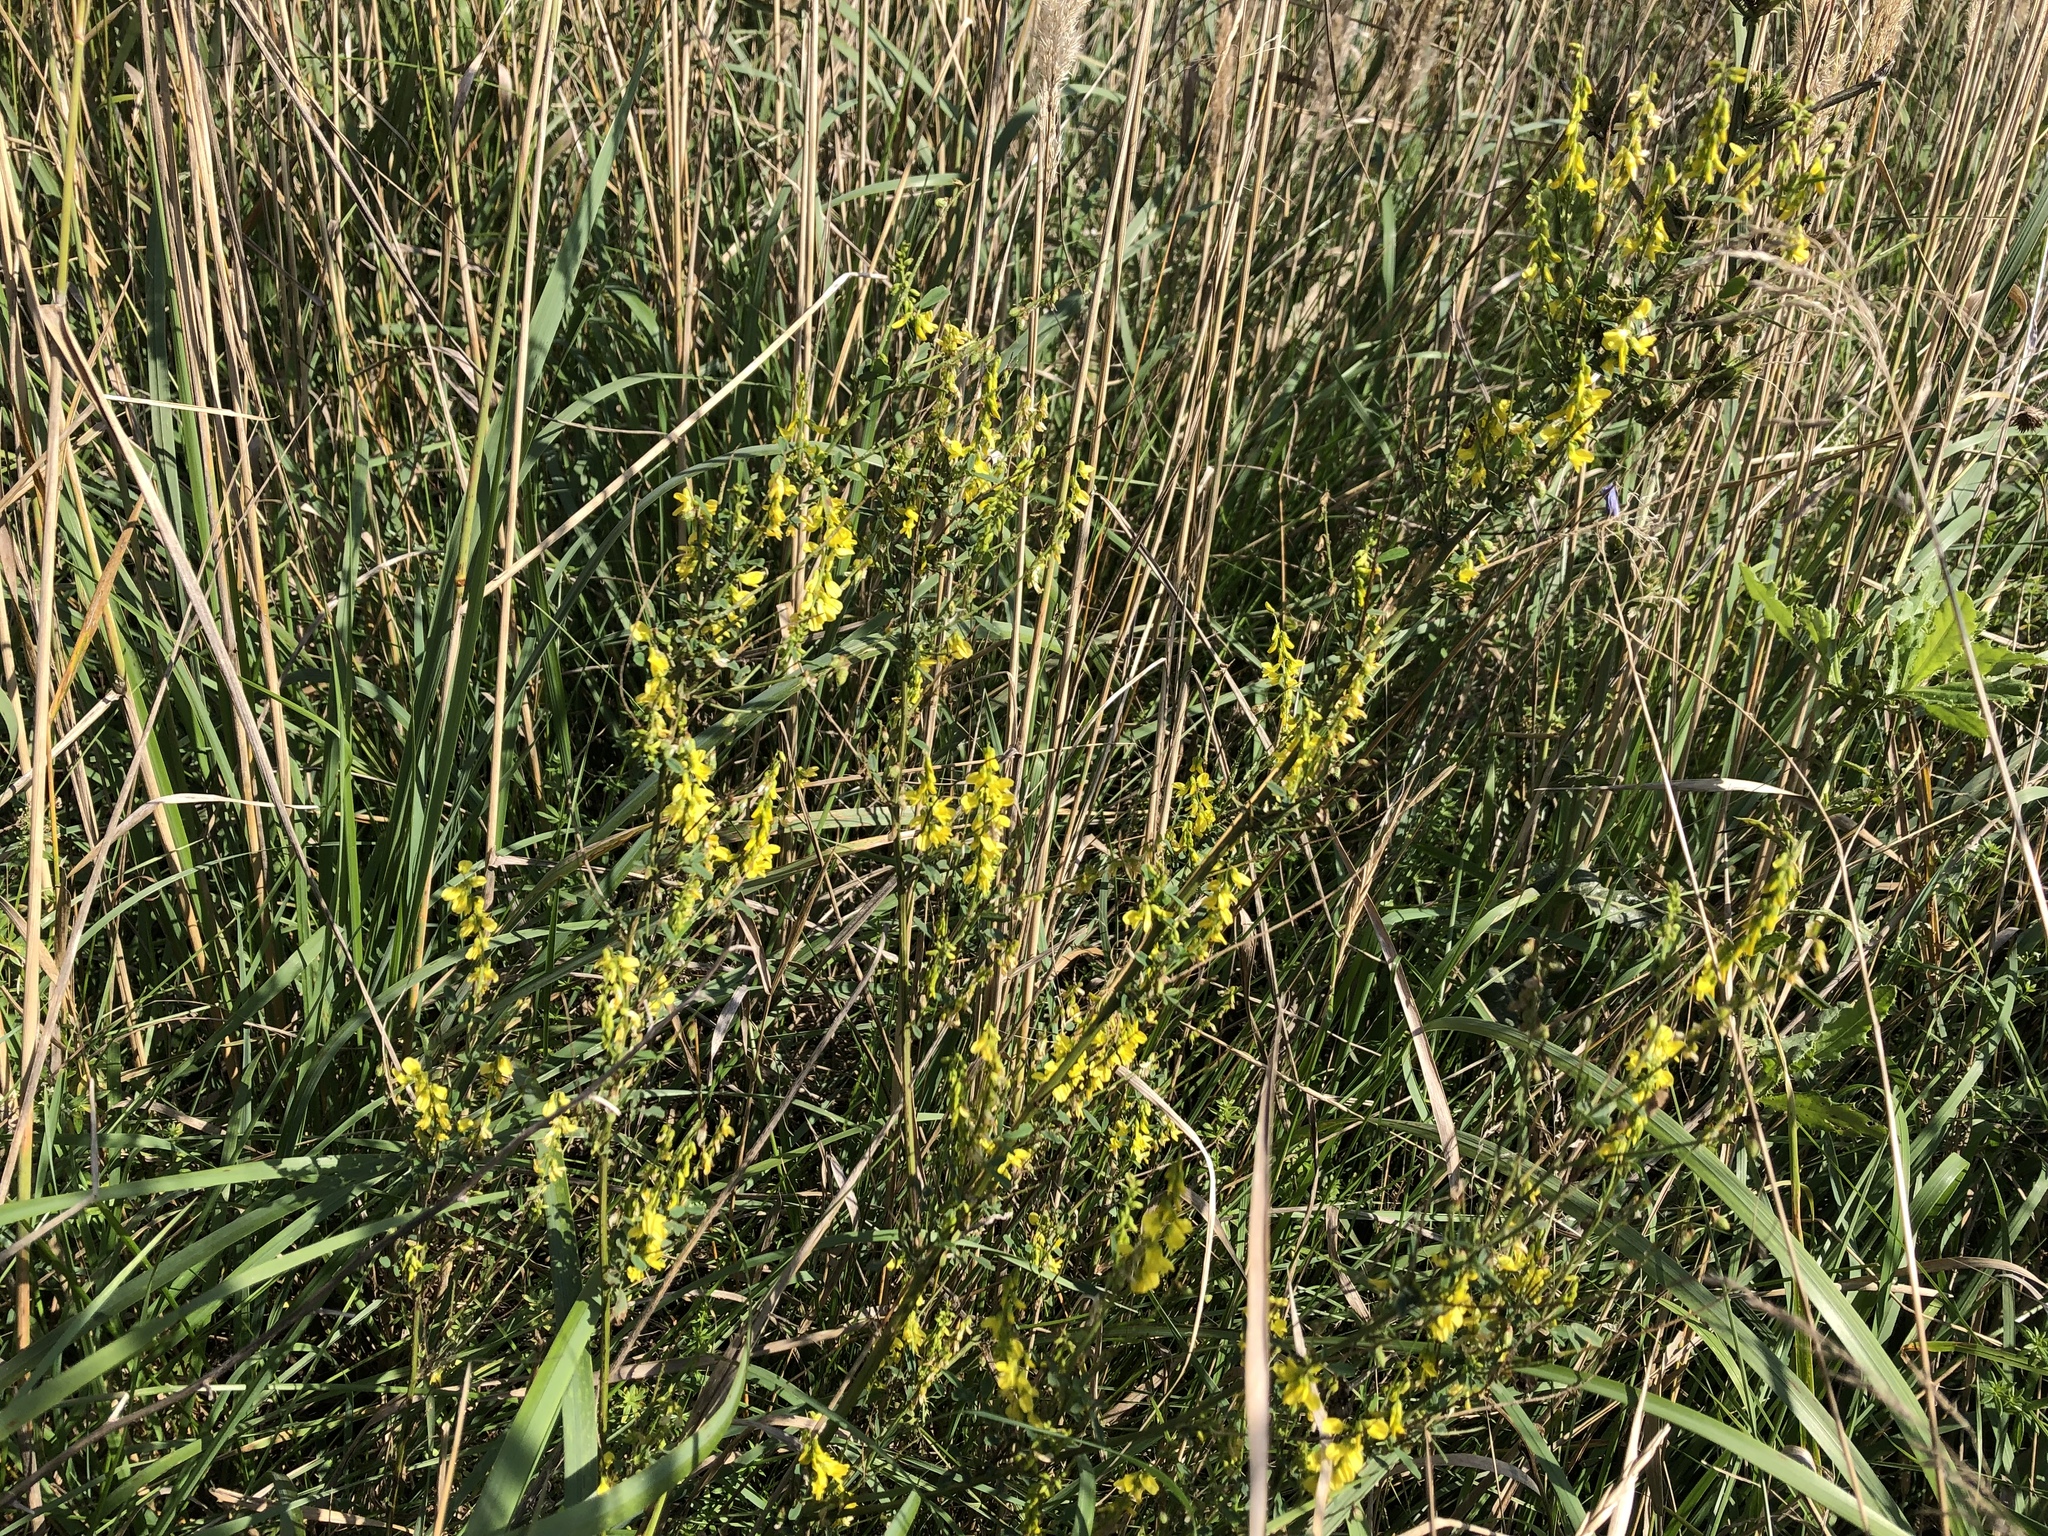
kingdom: Plantae
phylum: Tracheophyta
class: Magnoliopsida
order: Fabales
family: Fabaceae
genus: Melilotus
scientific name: Melilotus officinalis
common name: Sweetclover
